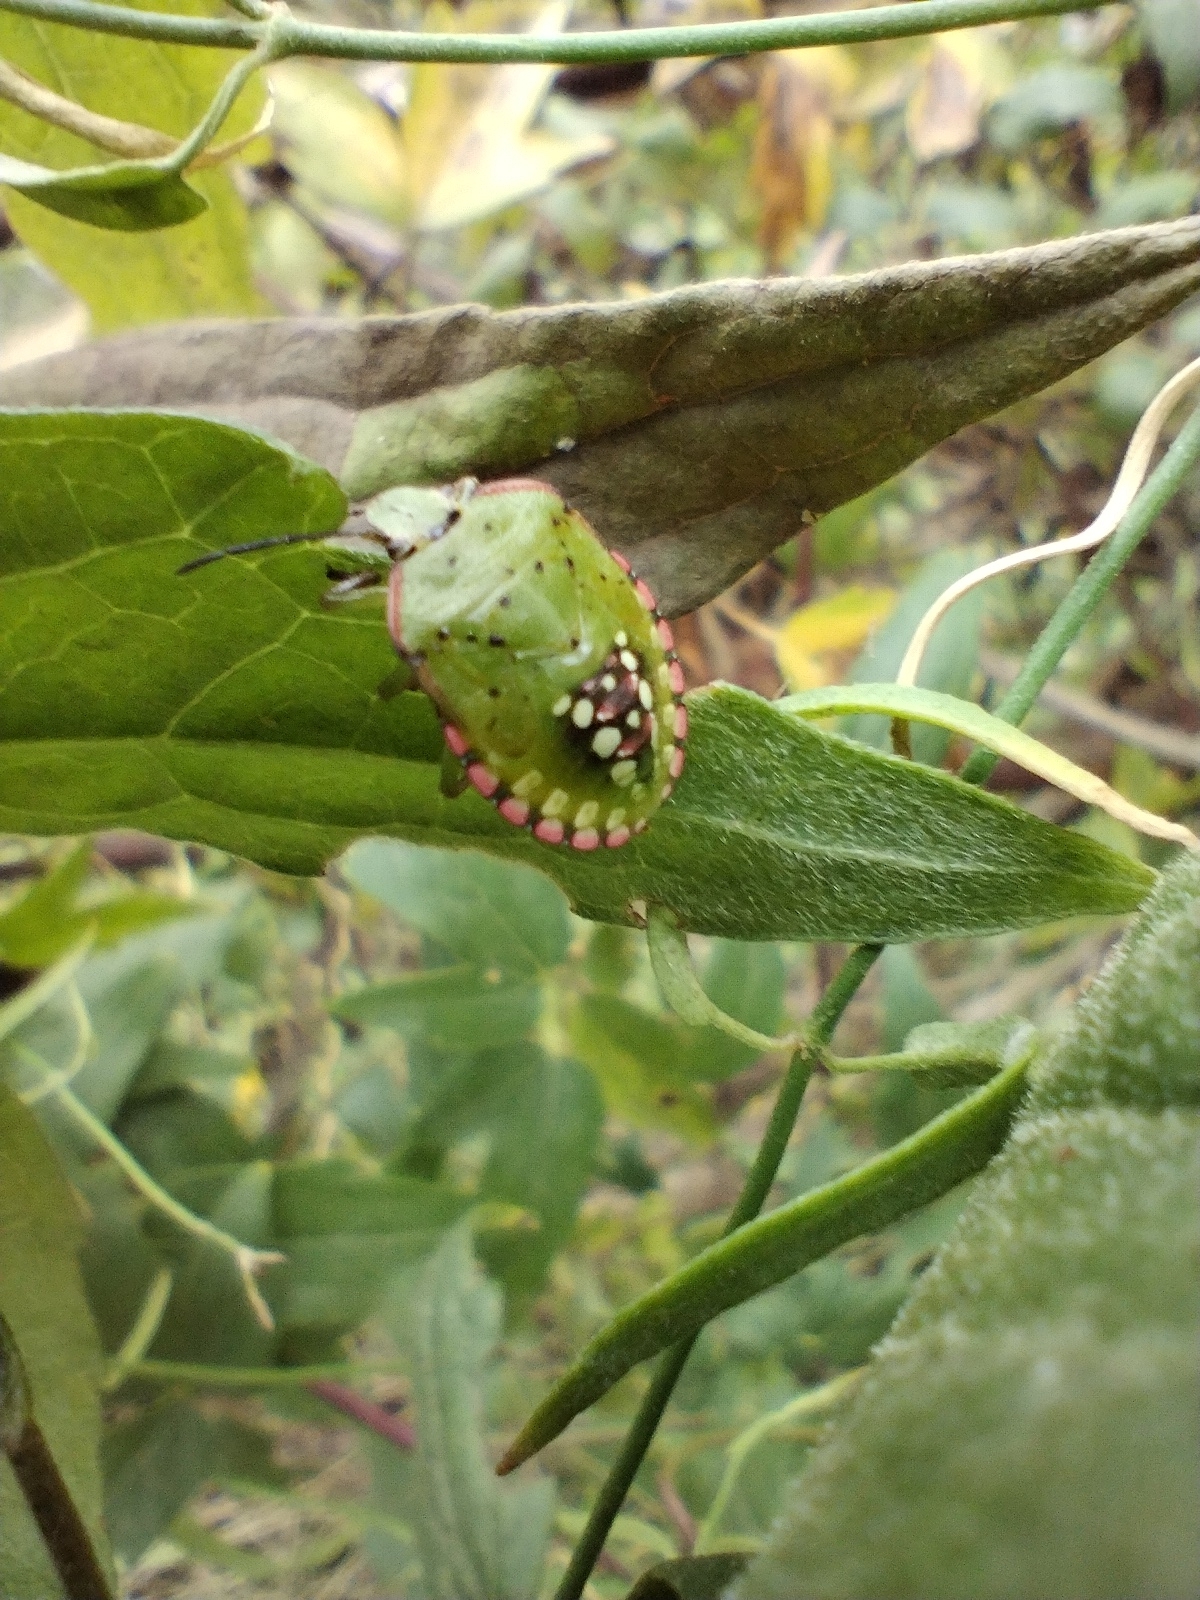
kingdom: Animalia
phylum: Arthropoda
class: Insecta
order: Hemiptera
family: Pentatomidae
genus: Nezara
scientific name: Nezara viridula
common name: Southern green stink bug
